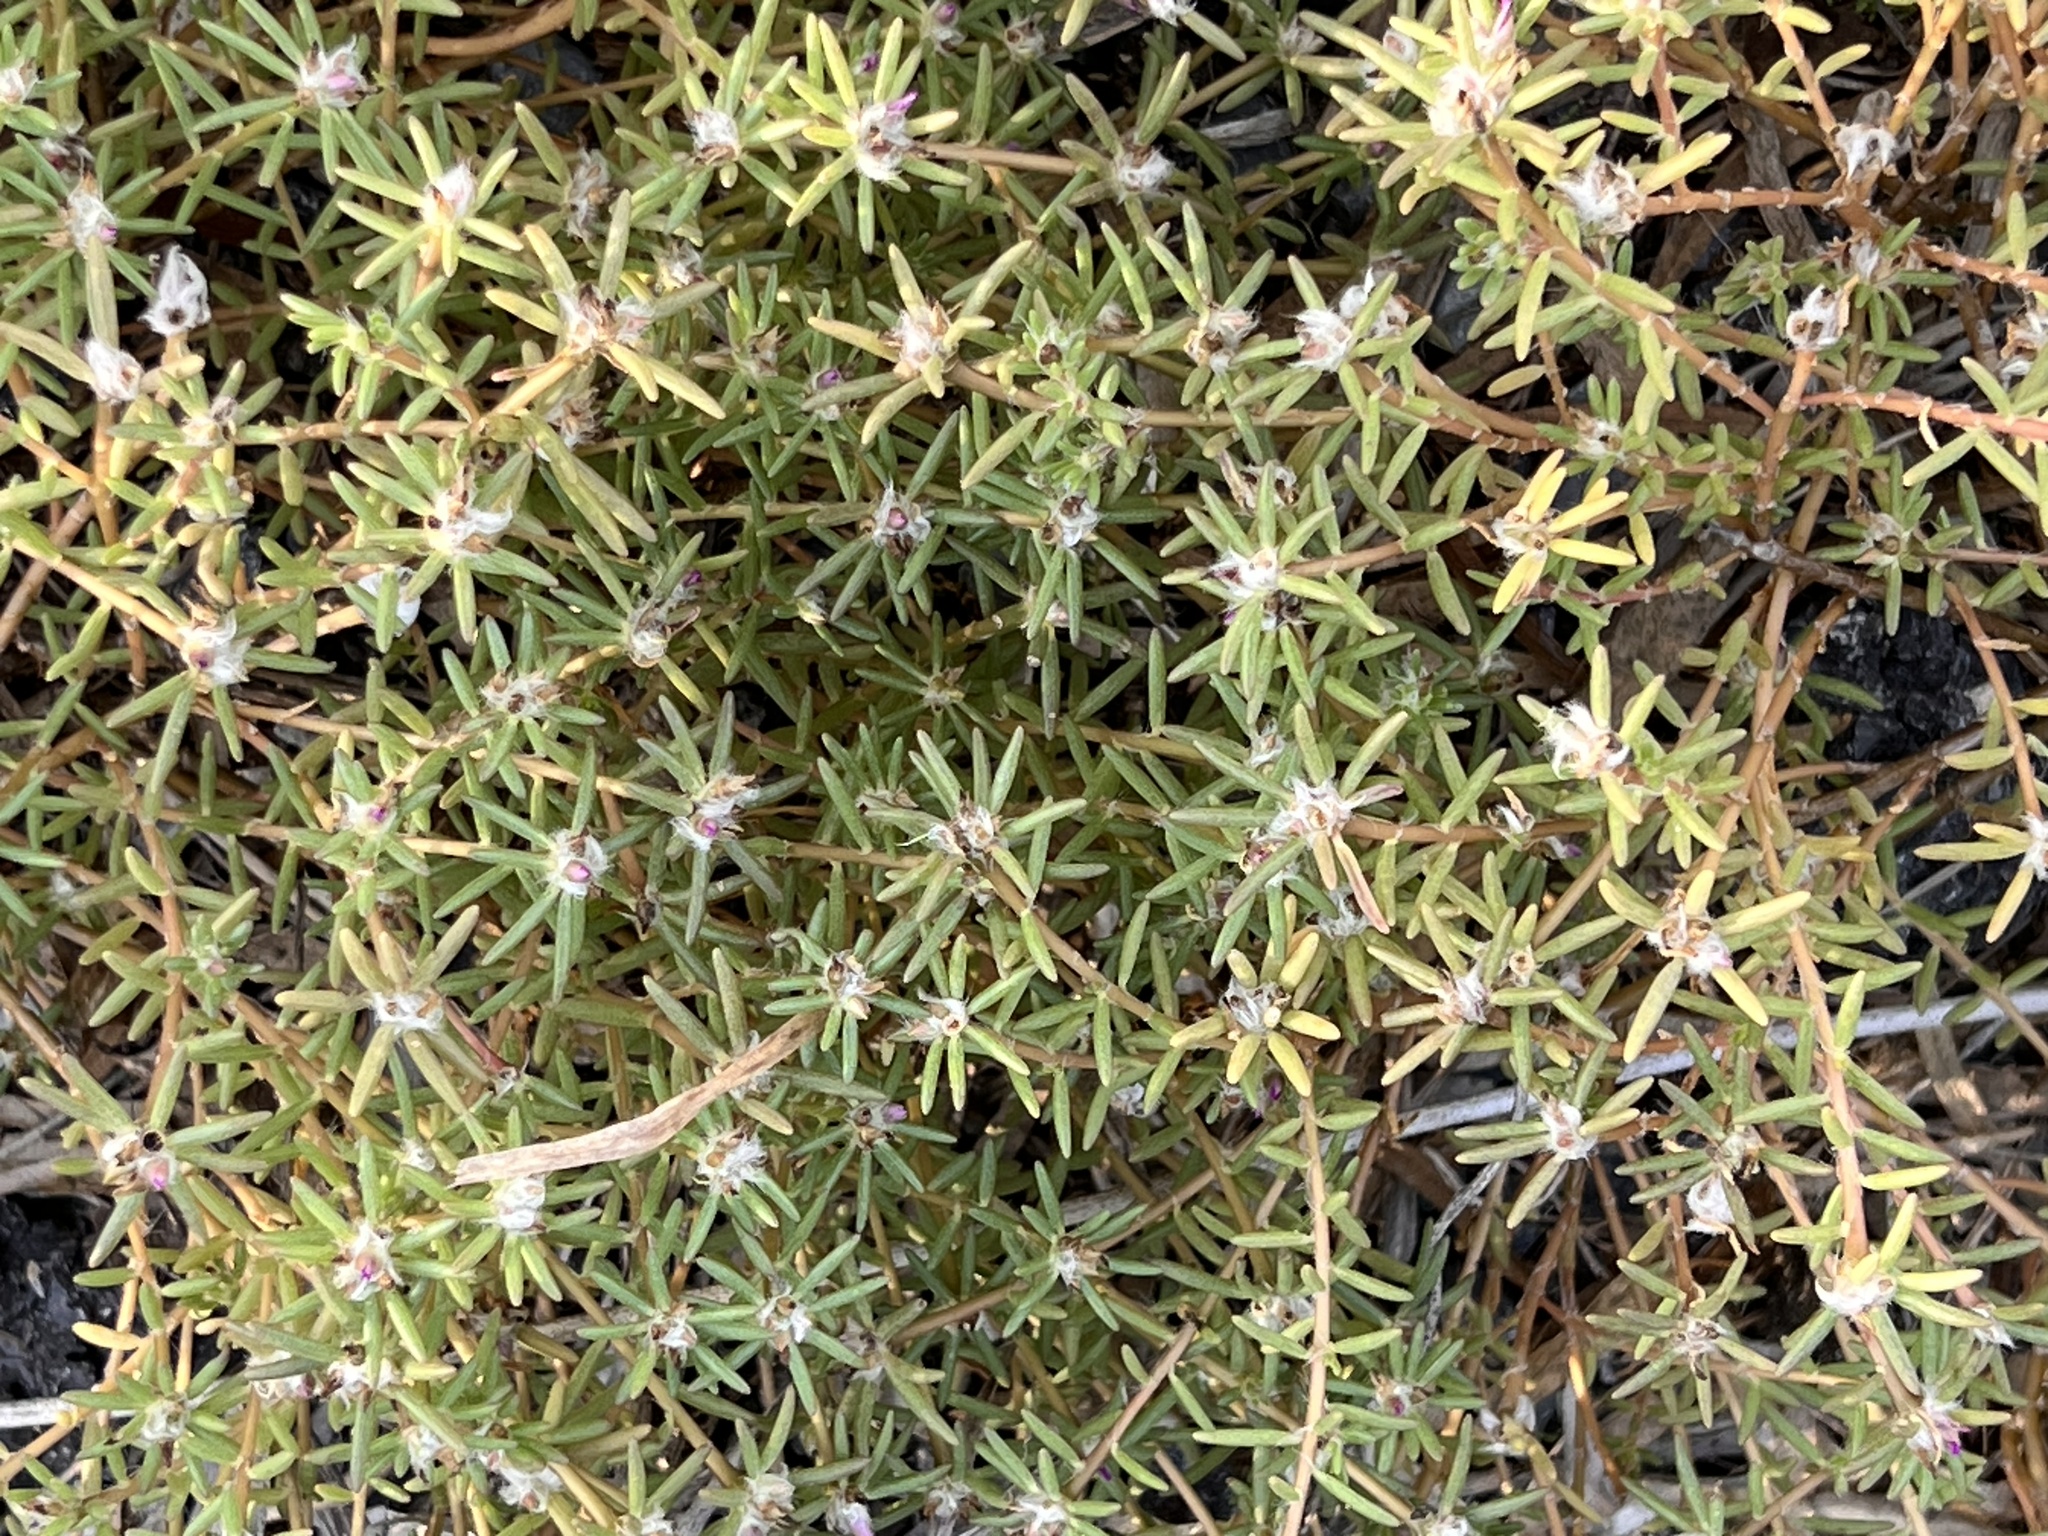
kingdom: Plantae
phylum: Tracheophyta
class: Magnoliopsida
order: Caryophyllales
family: Portulacaceae
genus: Portulaca
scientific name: Portulaca pilosa
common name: Kiss me quick
